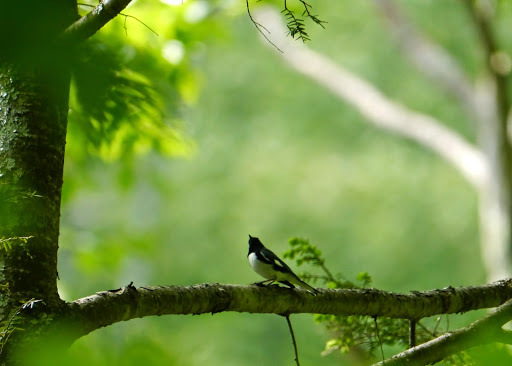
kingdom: Animalia
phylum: Chordata
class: Aves
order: Passeriformes
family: Parulidae
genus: Setophaga
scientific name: Setophaga caerulescens
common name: Black-throated blue warbler
